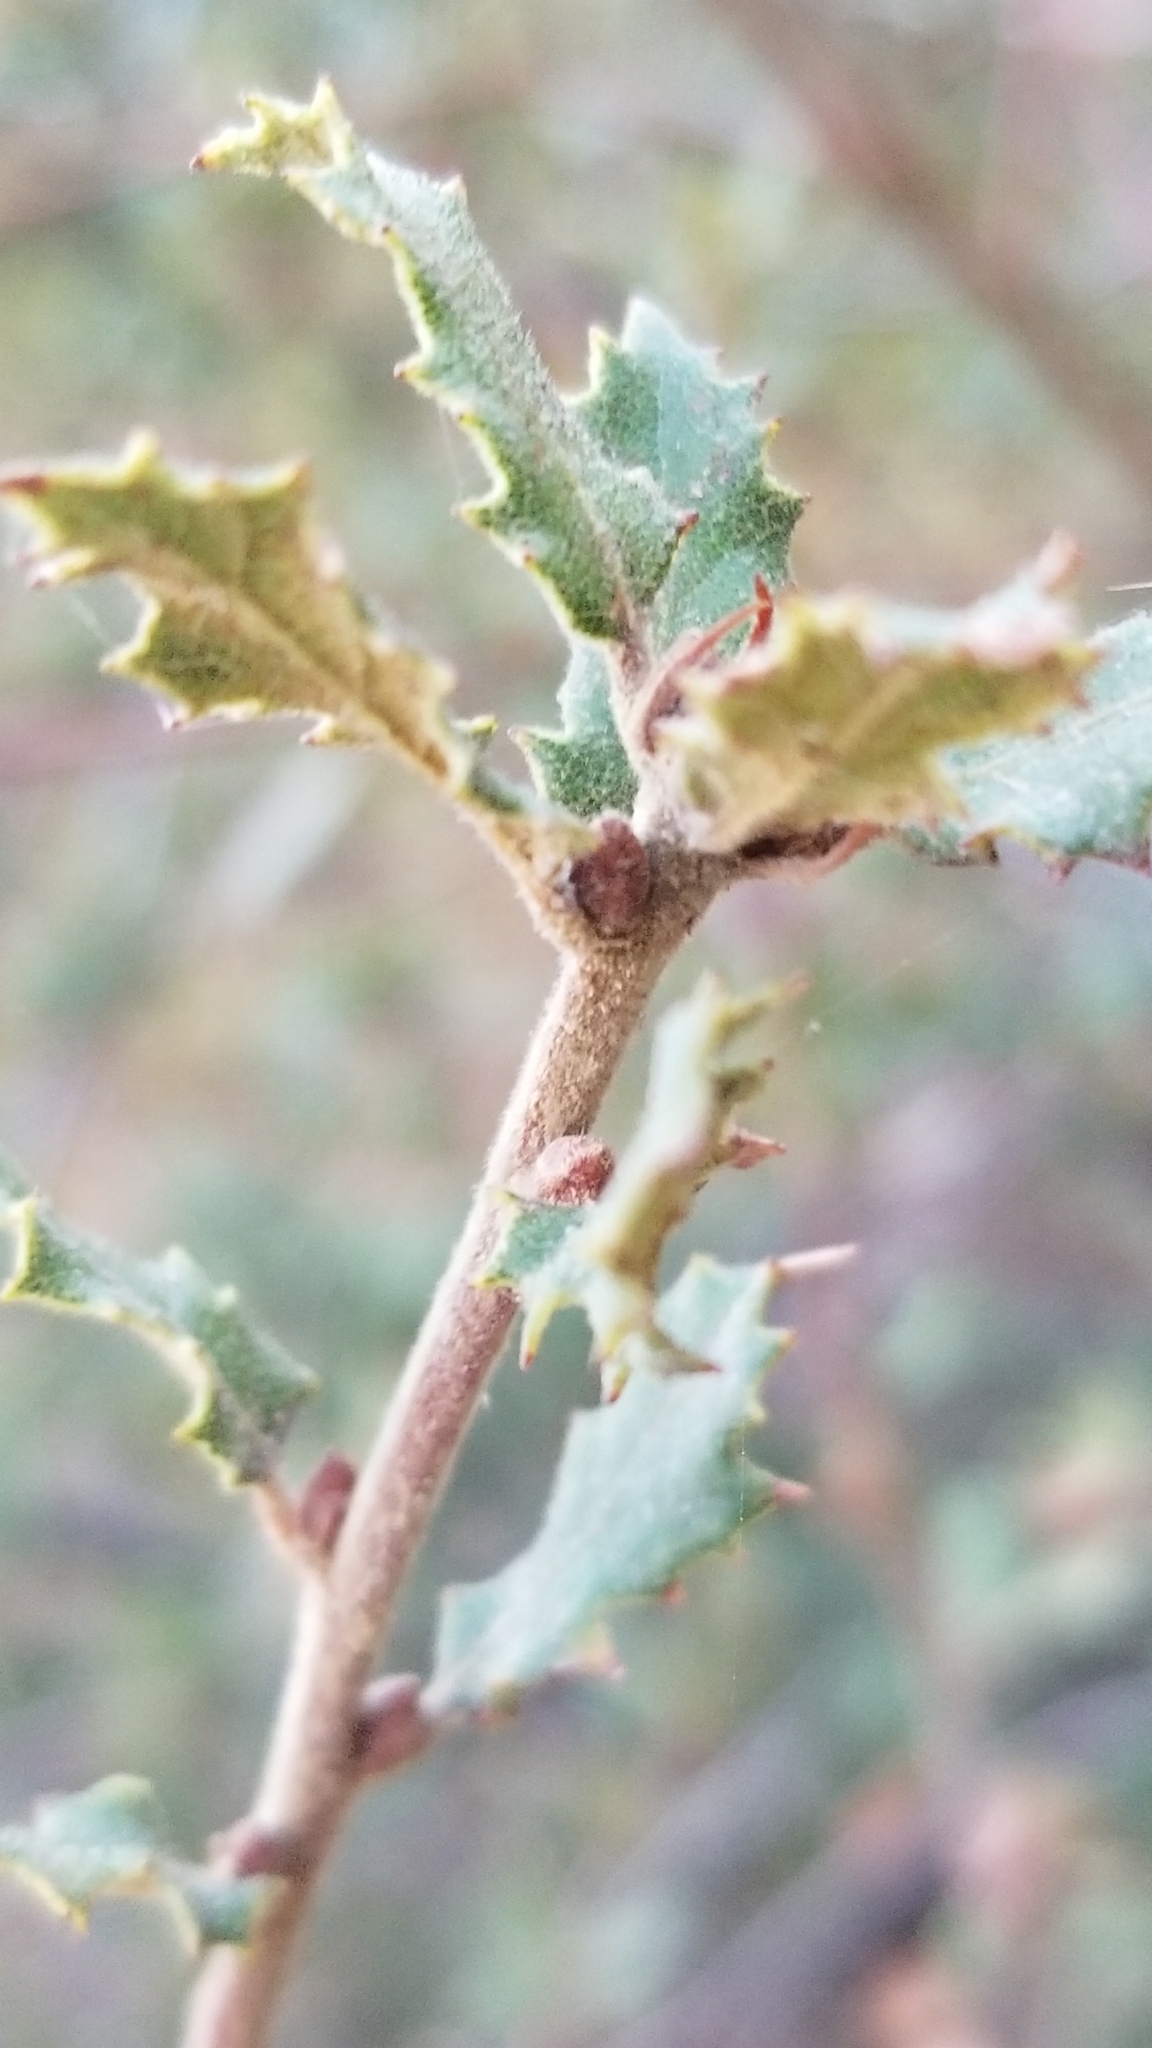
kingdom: Plantae
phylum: Tracheophyta
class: Magnoliopsida
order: Fagales
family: Fagaceae
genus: Quercus
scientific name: Quercus durata
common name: Leather oak
